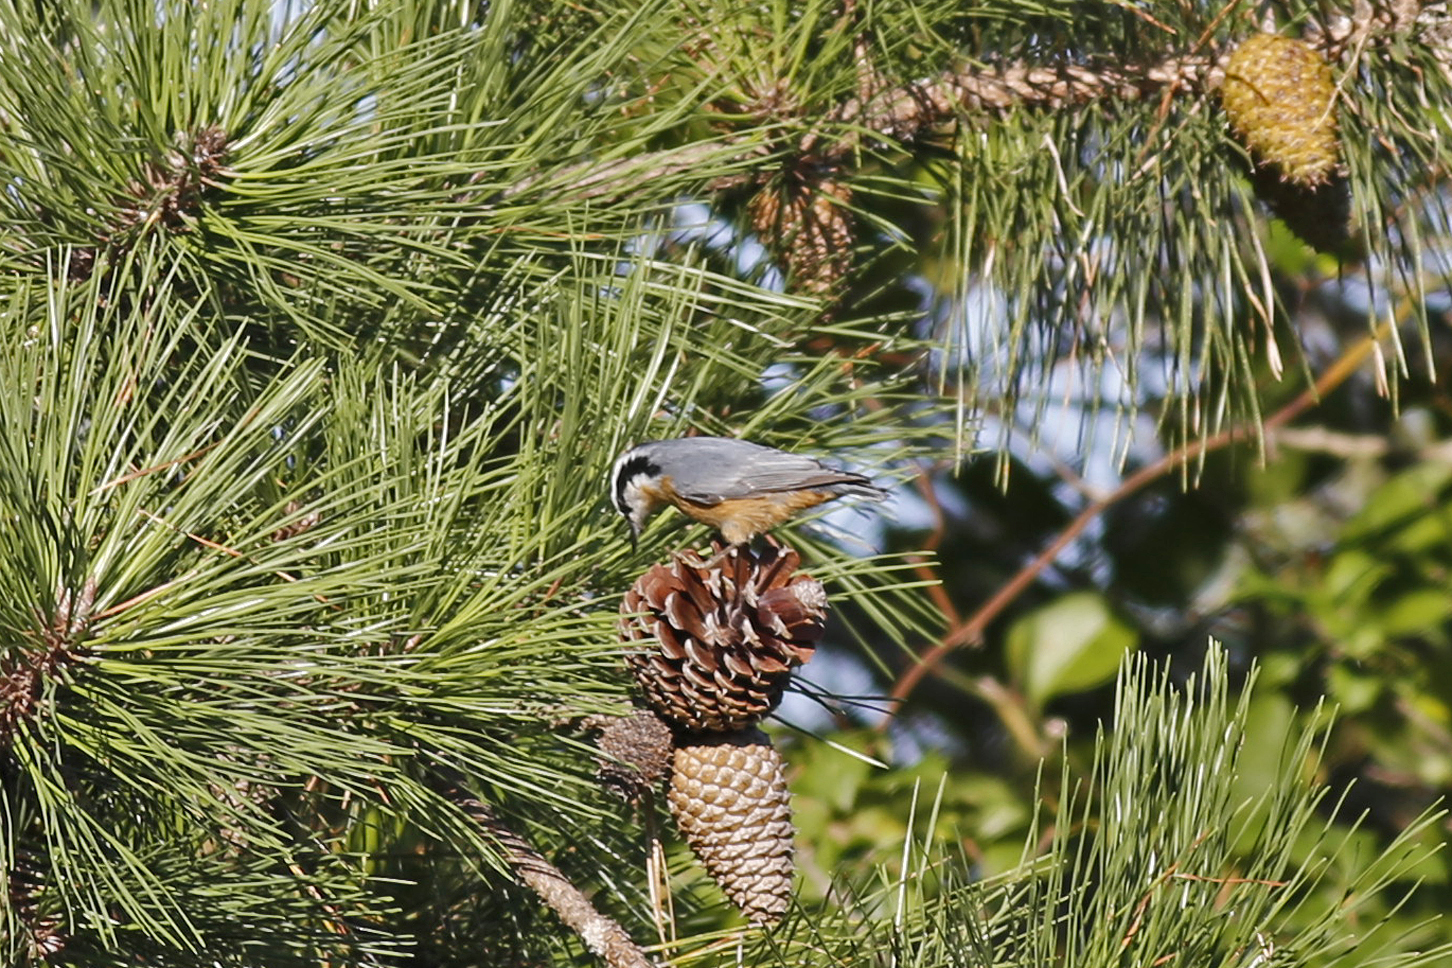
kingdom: Animalia
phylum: Chordata
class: Aves
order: Passeriformes
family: Sittidae
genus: Sitta
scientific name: Sitta canadensis
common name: Red-breasted nuthatch
